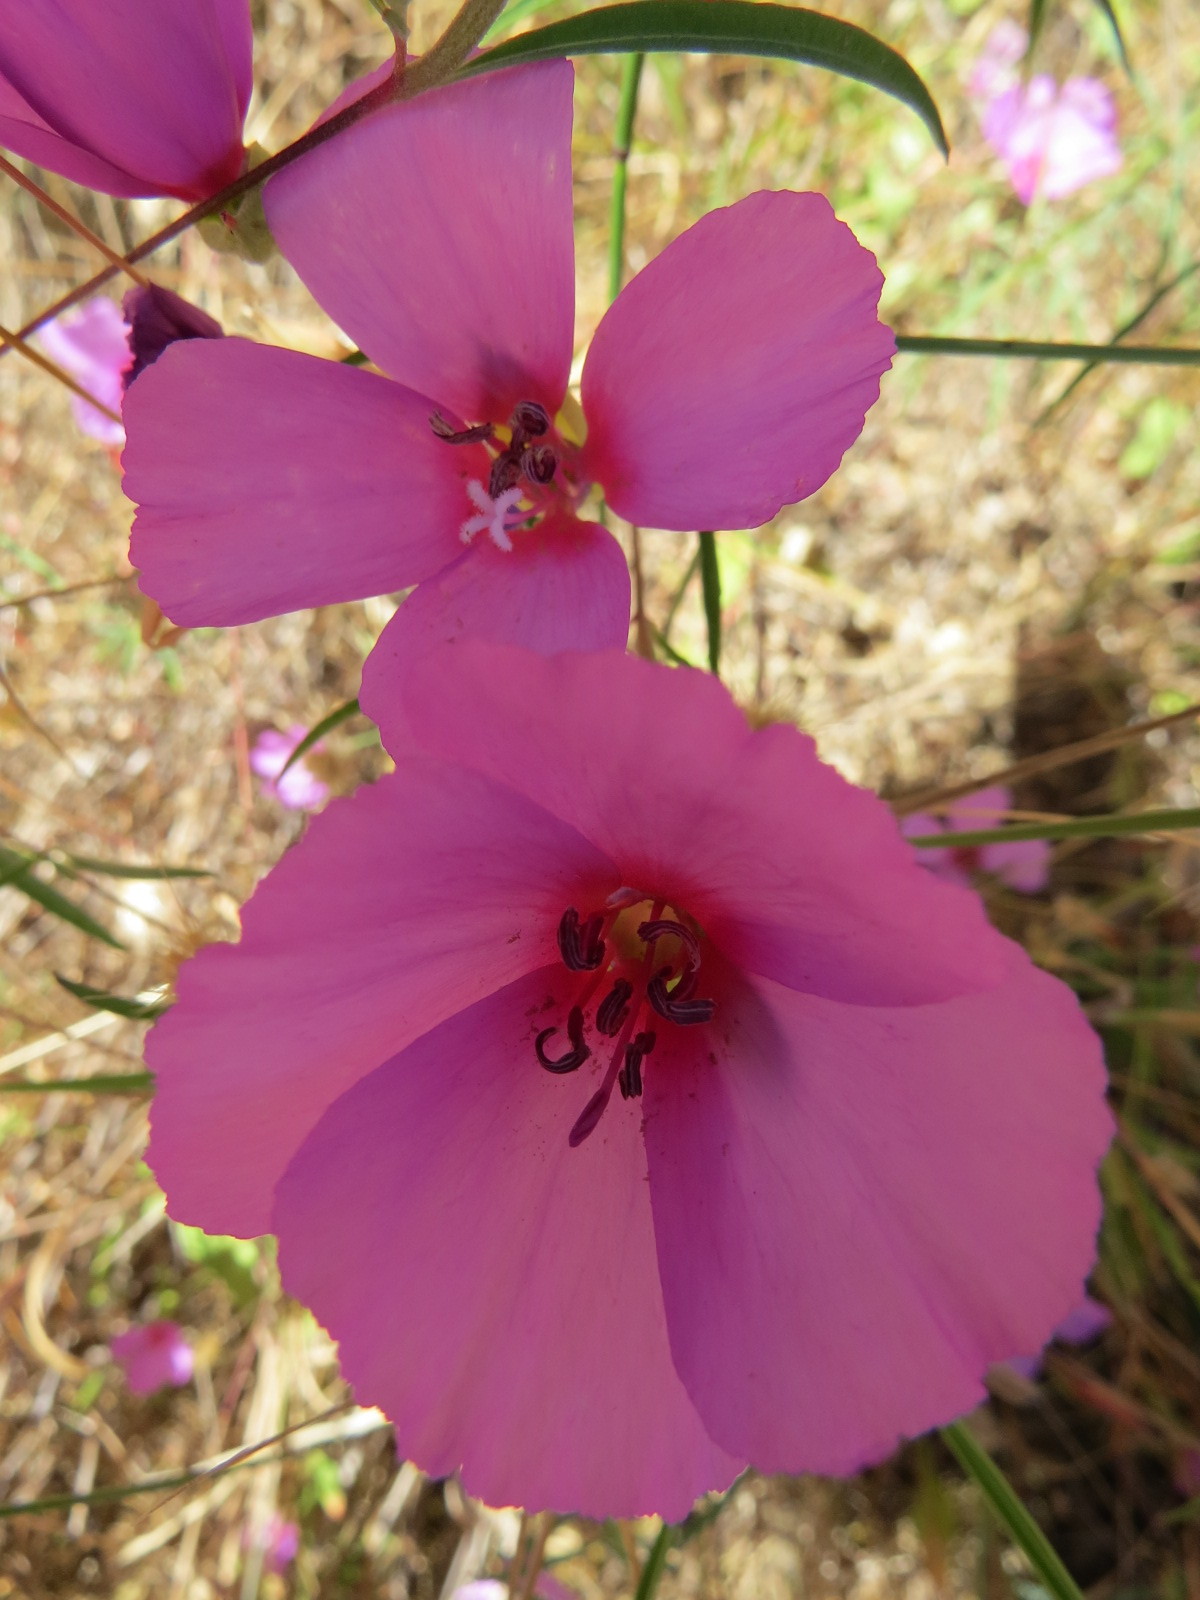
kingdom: Plantae
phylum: Tracheophyta
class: Magnoliopsida
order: Myrtales
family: Onagraceae
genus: Clarkia
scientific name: Clarkia rubicunda
